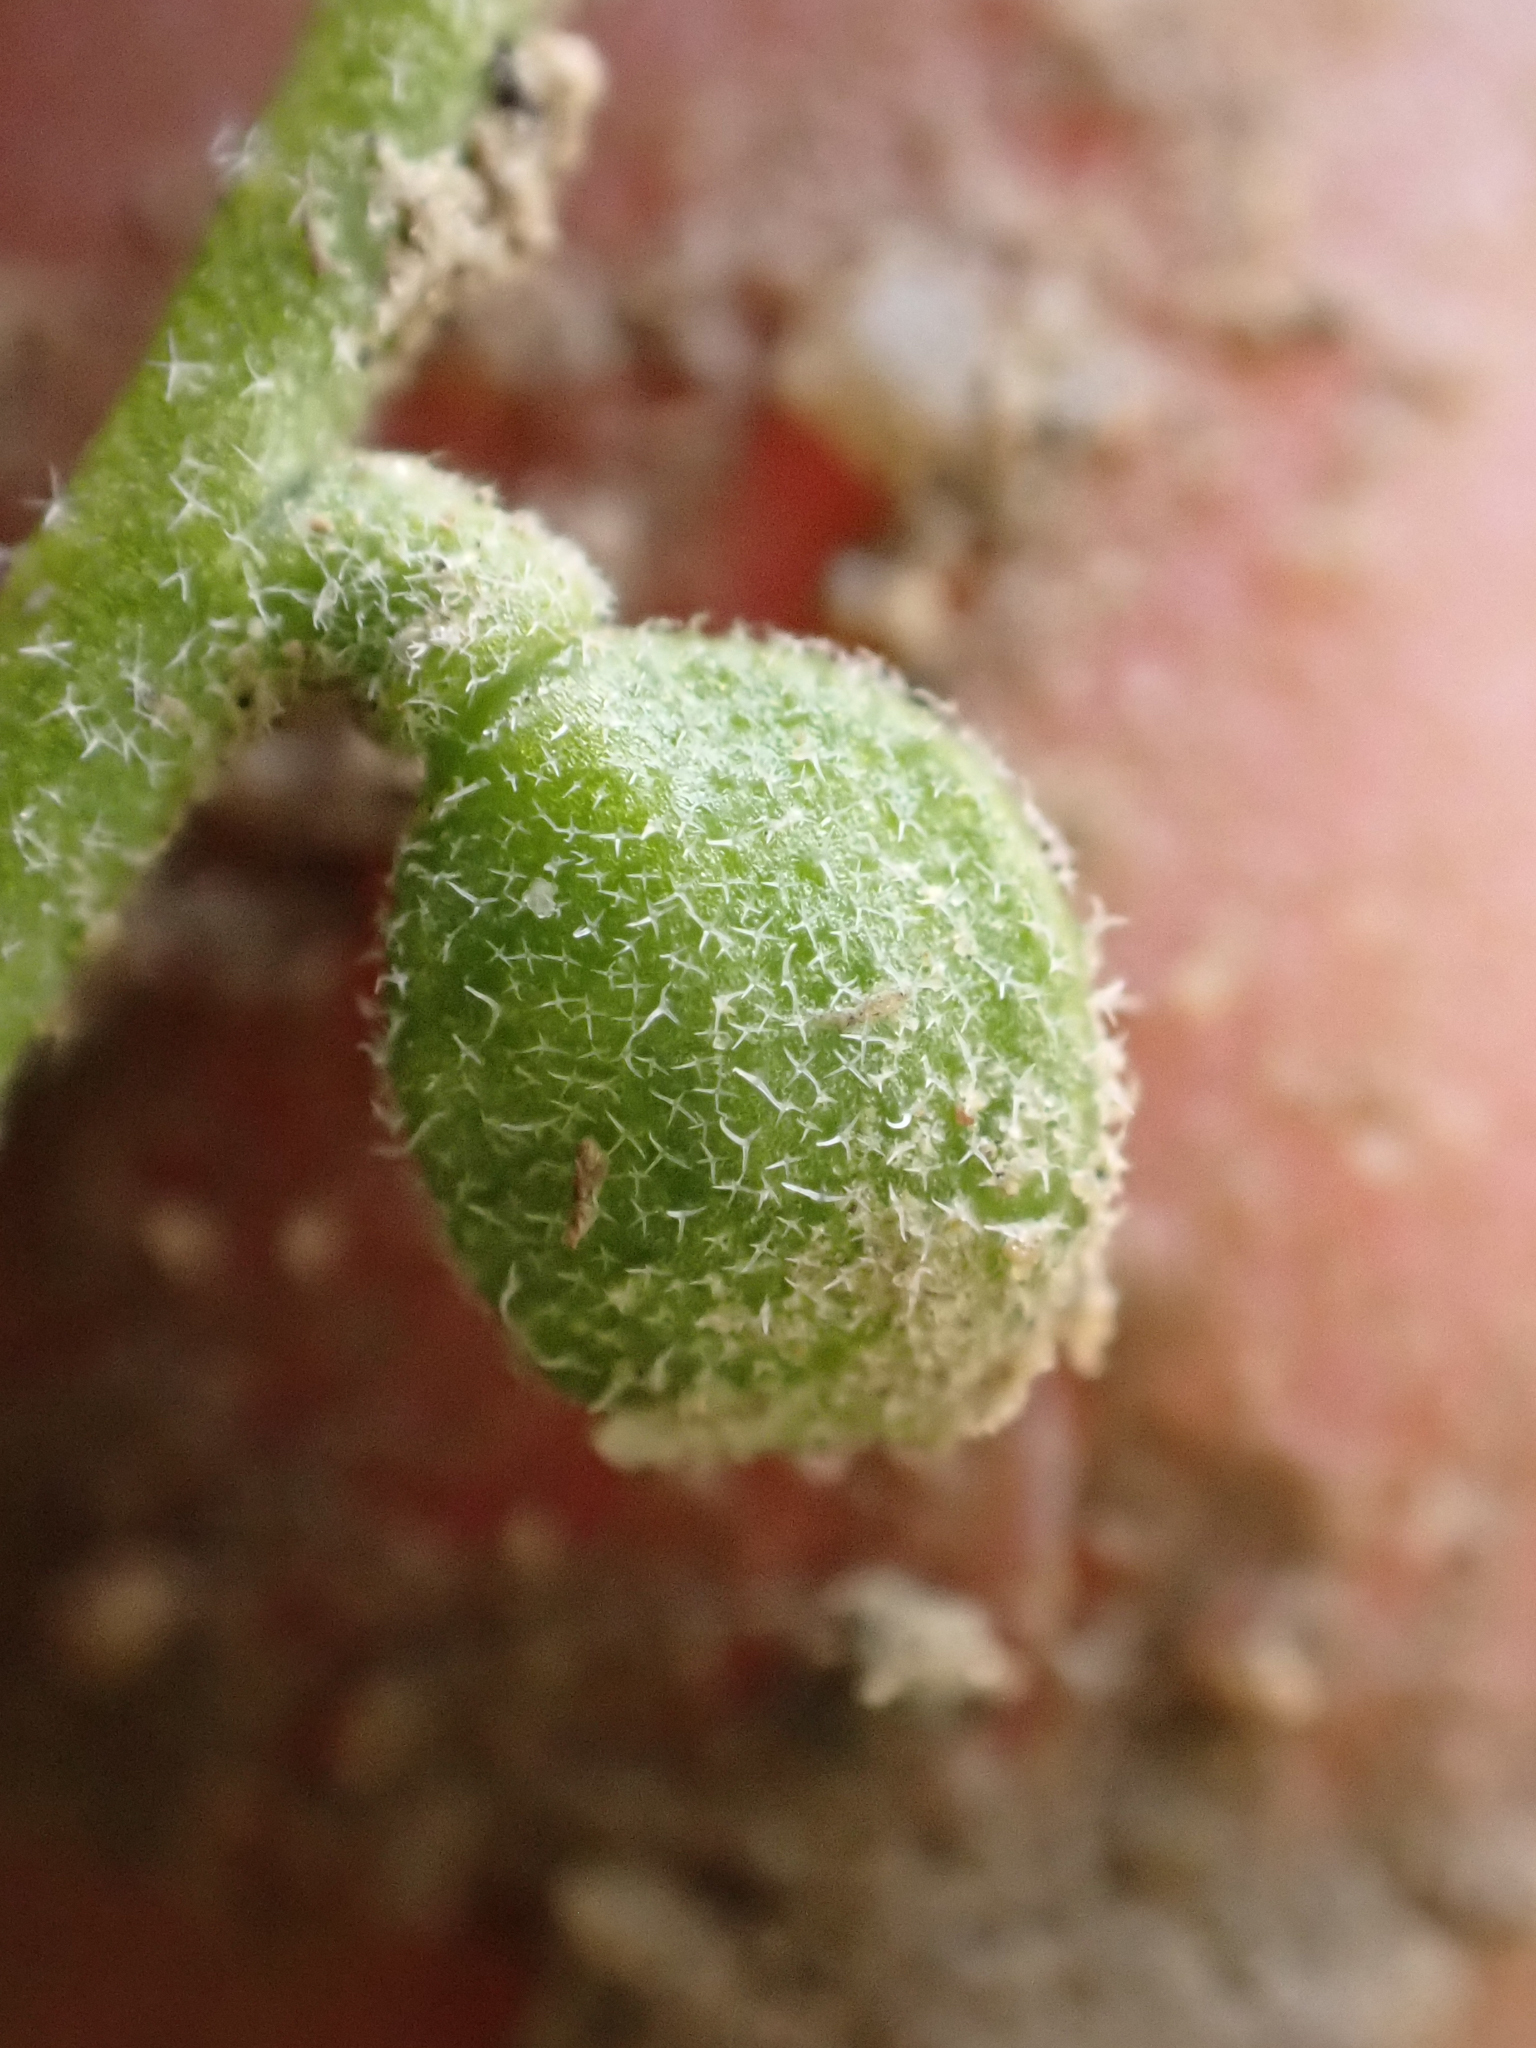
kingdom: Plantae
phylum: Tracheophyta
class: Magnoliopsida
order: Brassicales
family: Brassicaceae
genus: Athysanus
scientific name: Athysanus unilateralis
